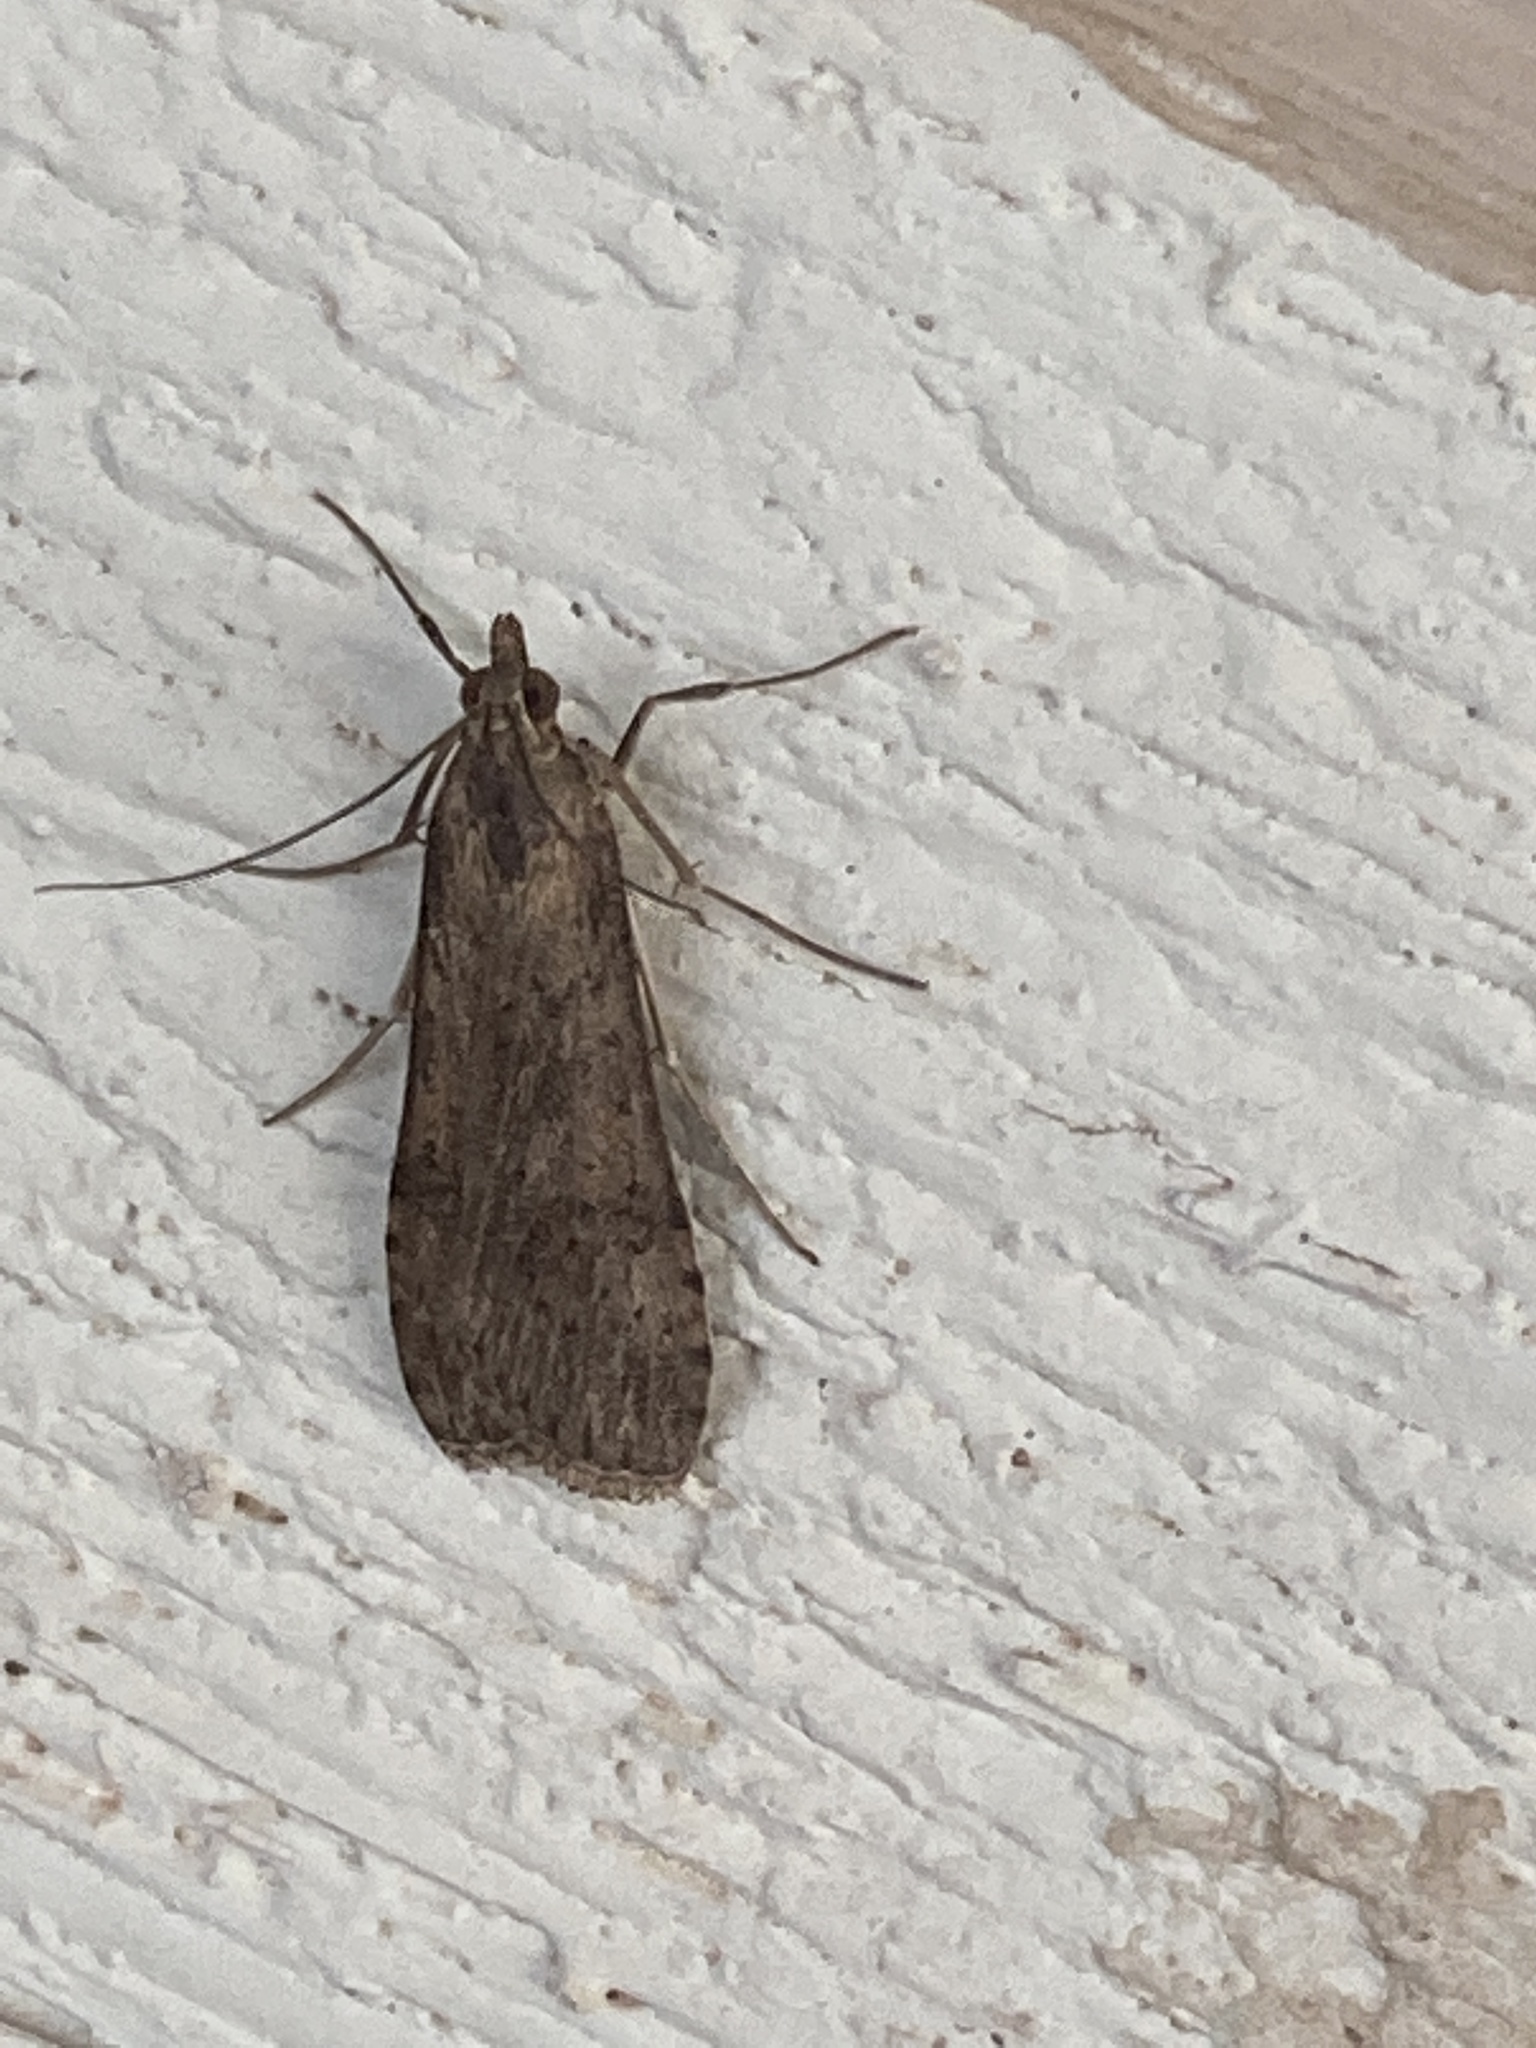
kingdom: Animalia
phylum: Arthropoda
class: Insecta
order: Lepidoptera
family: Crambidae
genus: Nomophila
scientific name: Nomophila nearctica
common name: American rush veneer
